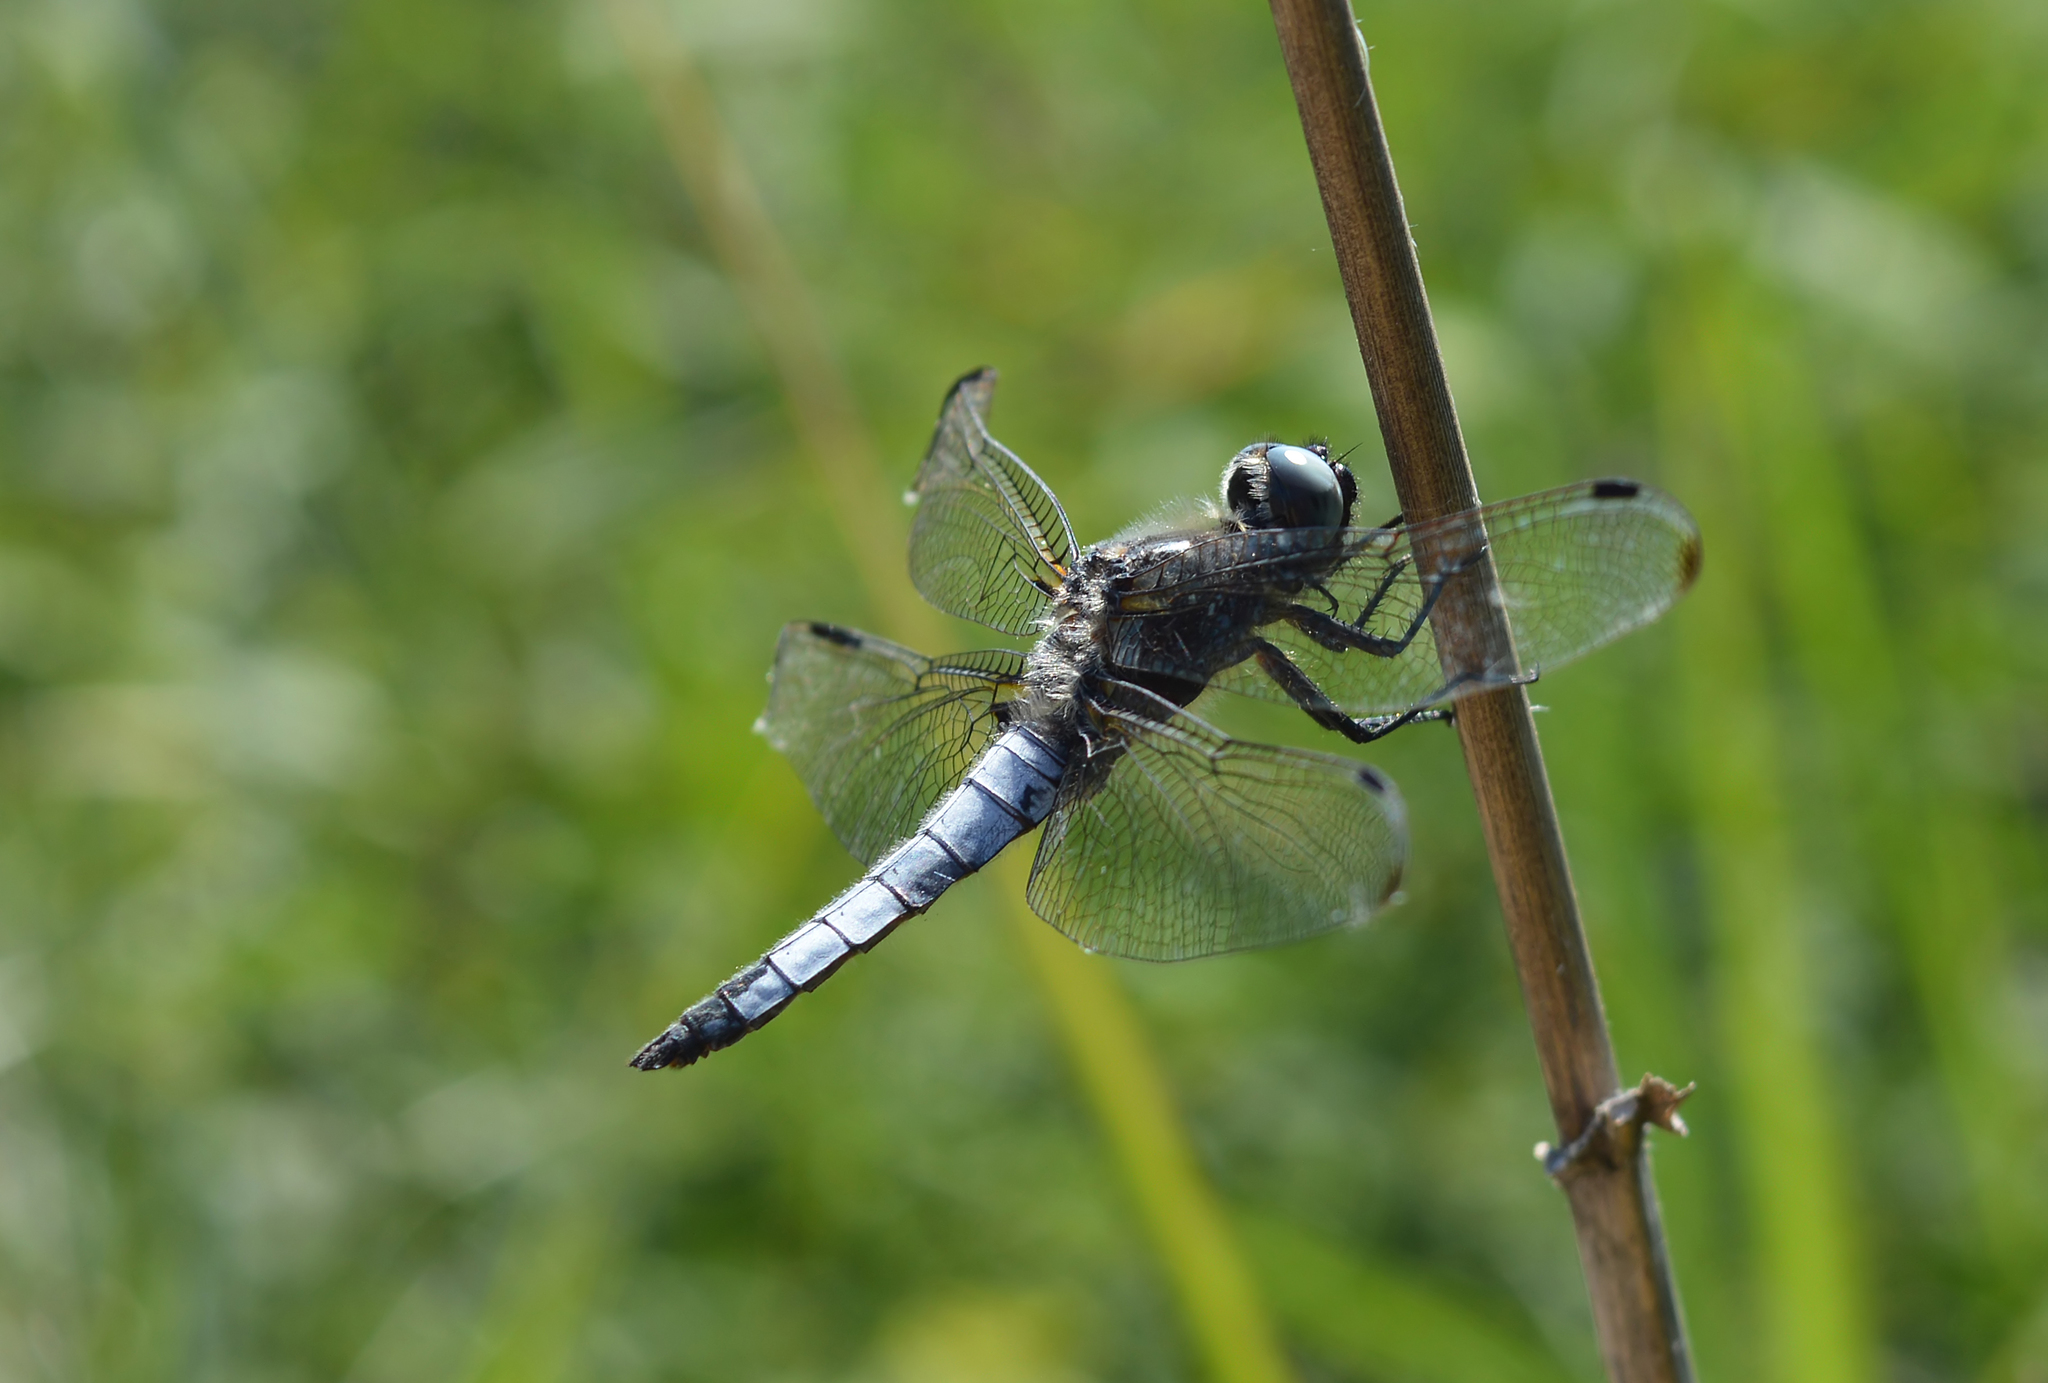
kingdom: Animalia
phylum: Arthropoda
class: Insecta
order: Odonata
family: Libellulidae
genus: Libellula
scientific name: Libellula fulva
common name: Blue chaser
